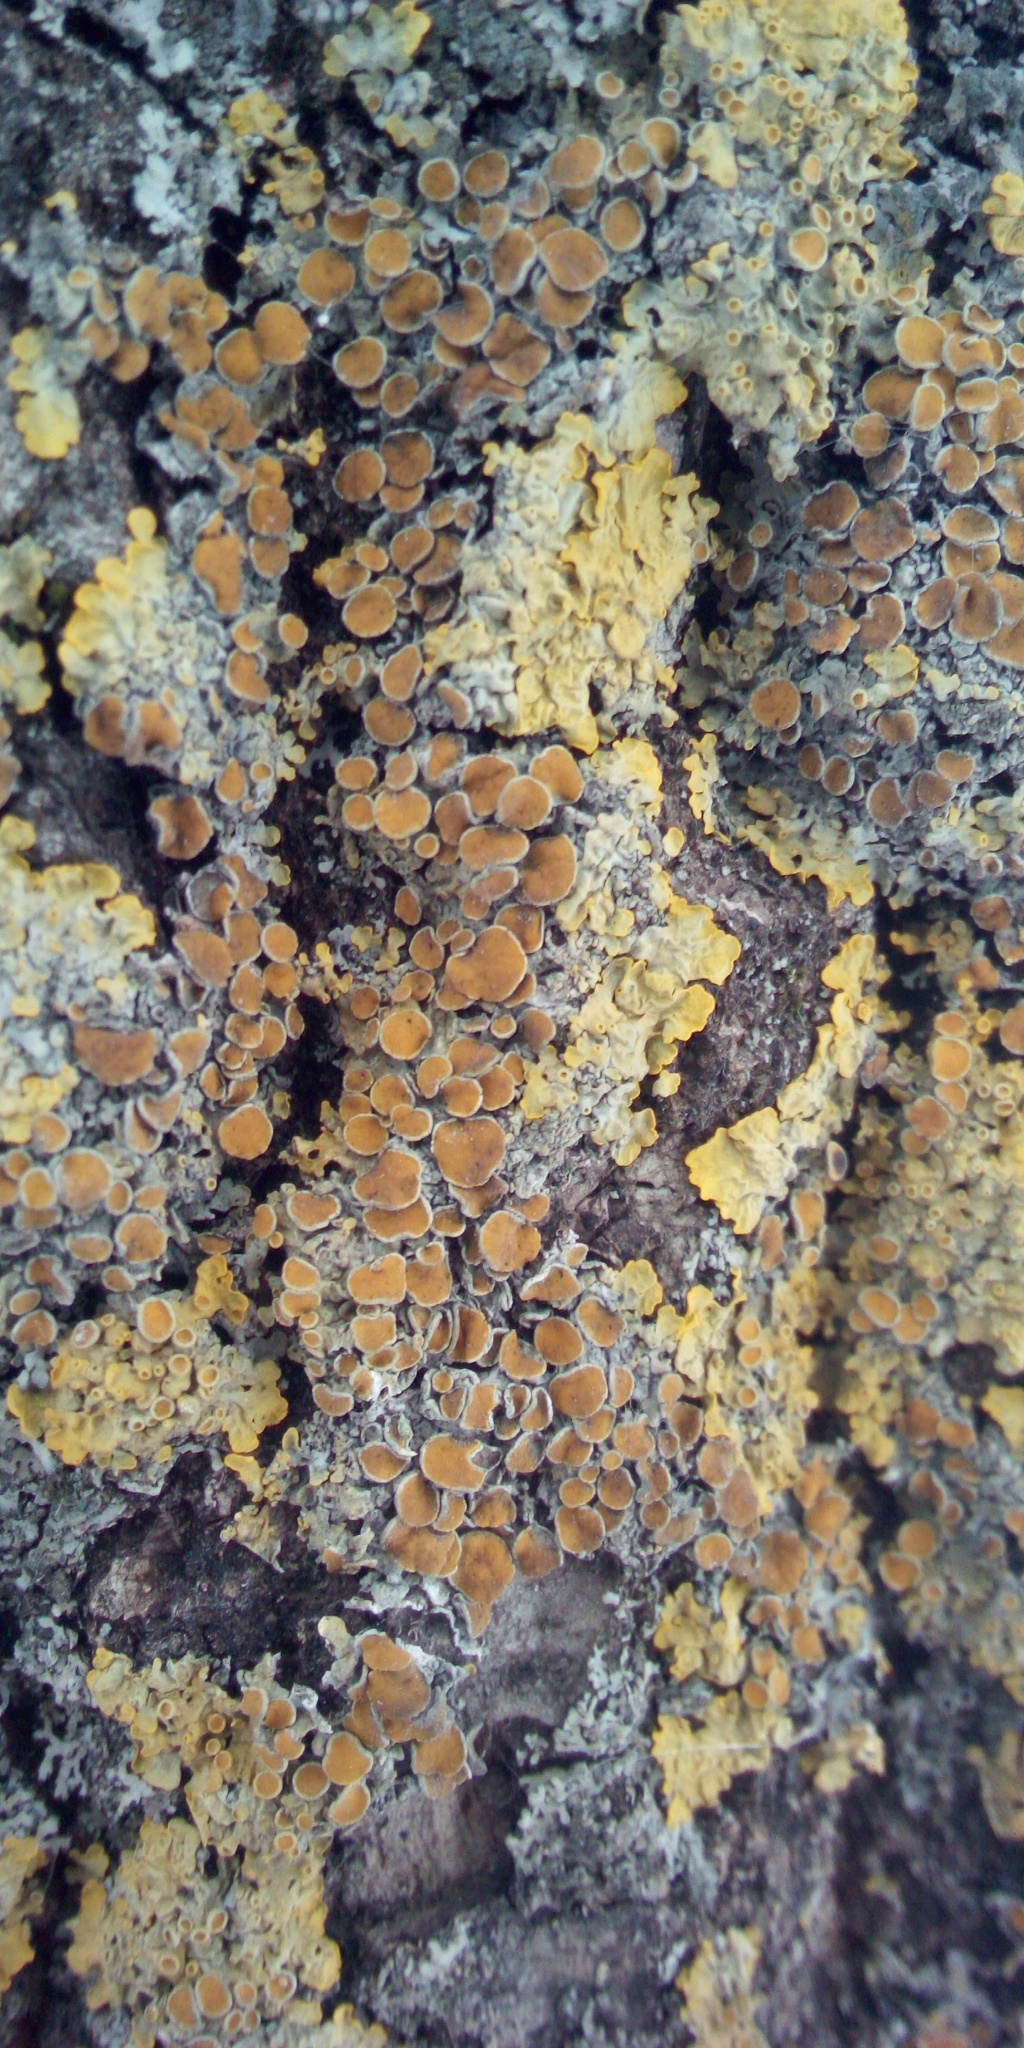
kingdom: Fungi
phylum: Ascomycota
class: Lecanoromycetes
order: Teloschistales
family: Teloschistaceae
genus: Xanthoria
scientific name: Xanthoria parietina
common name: Common orange lichen
